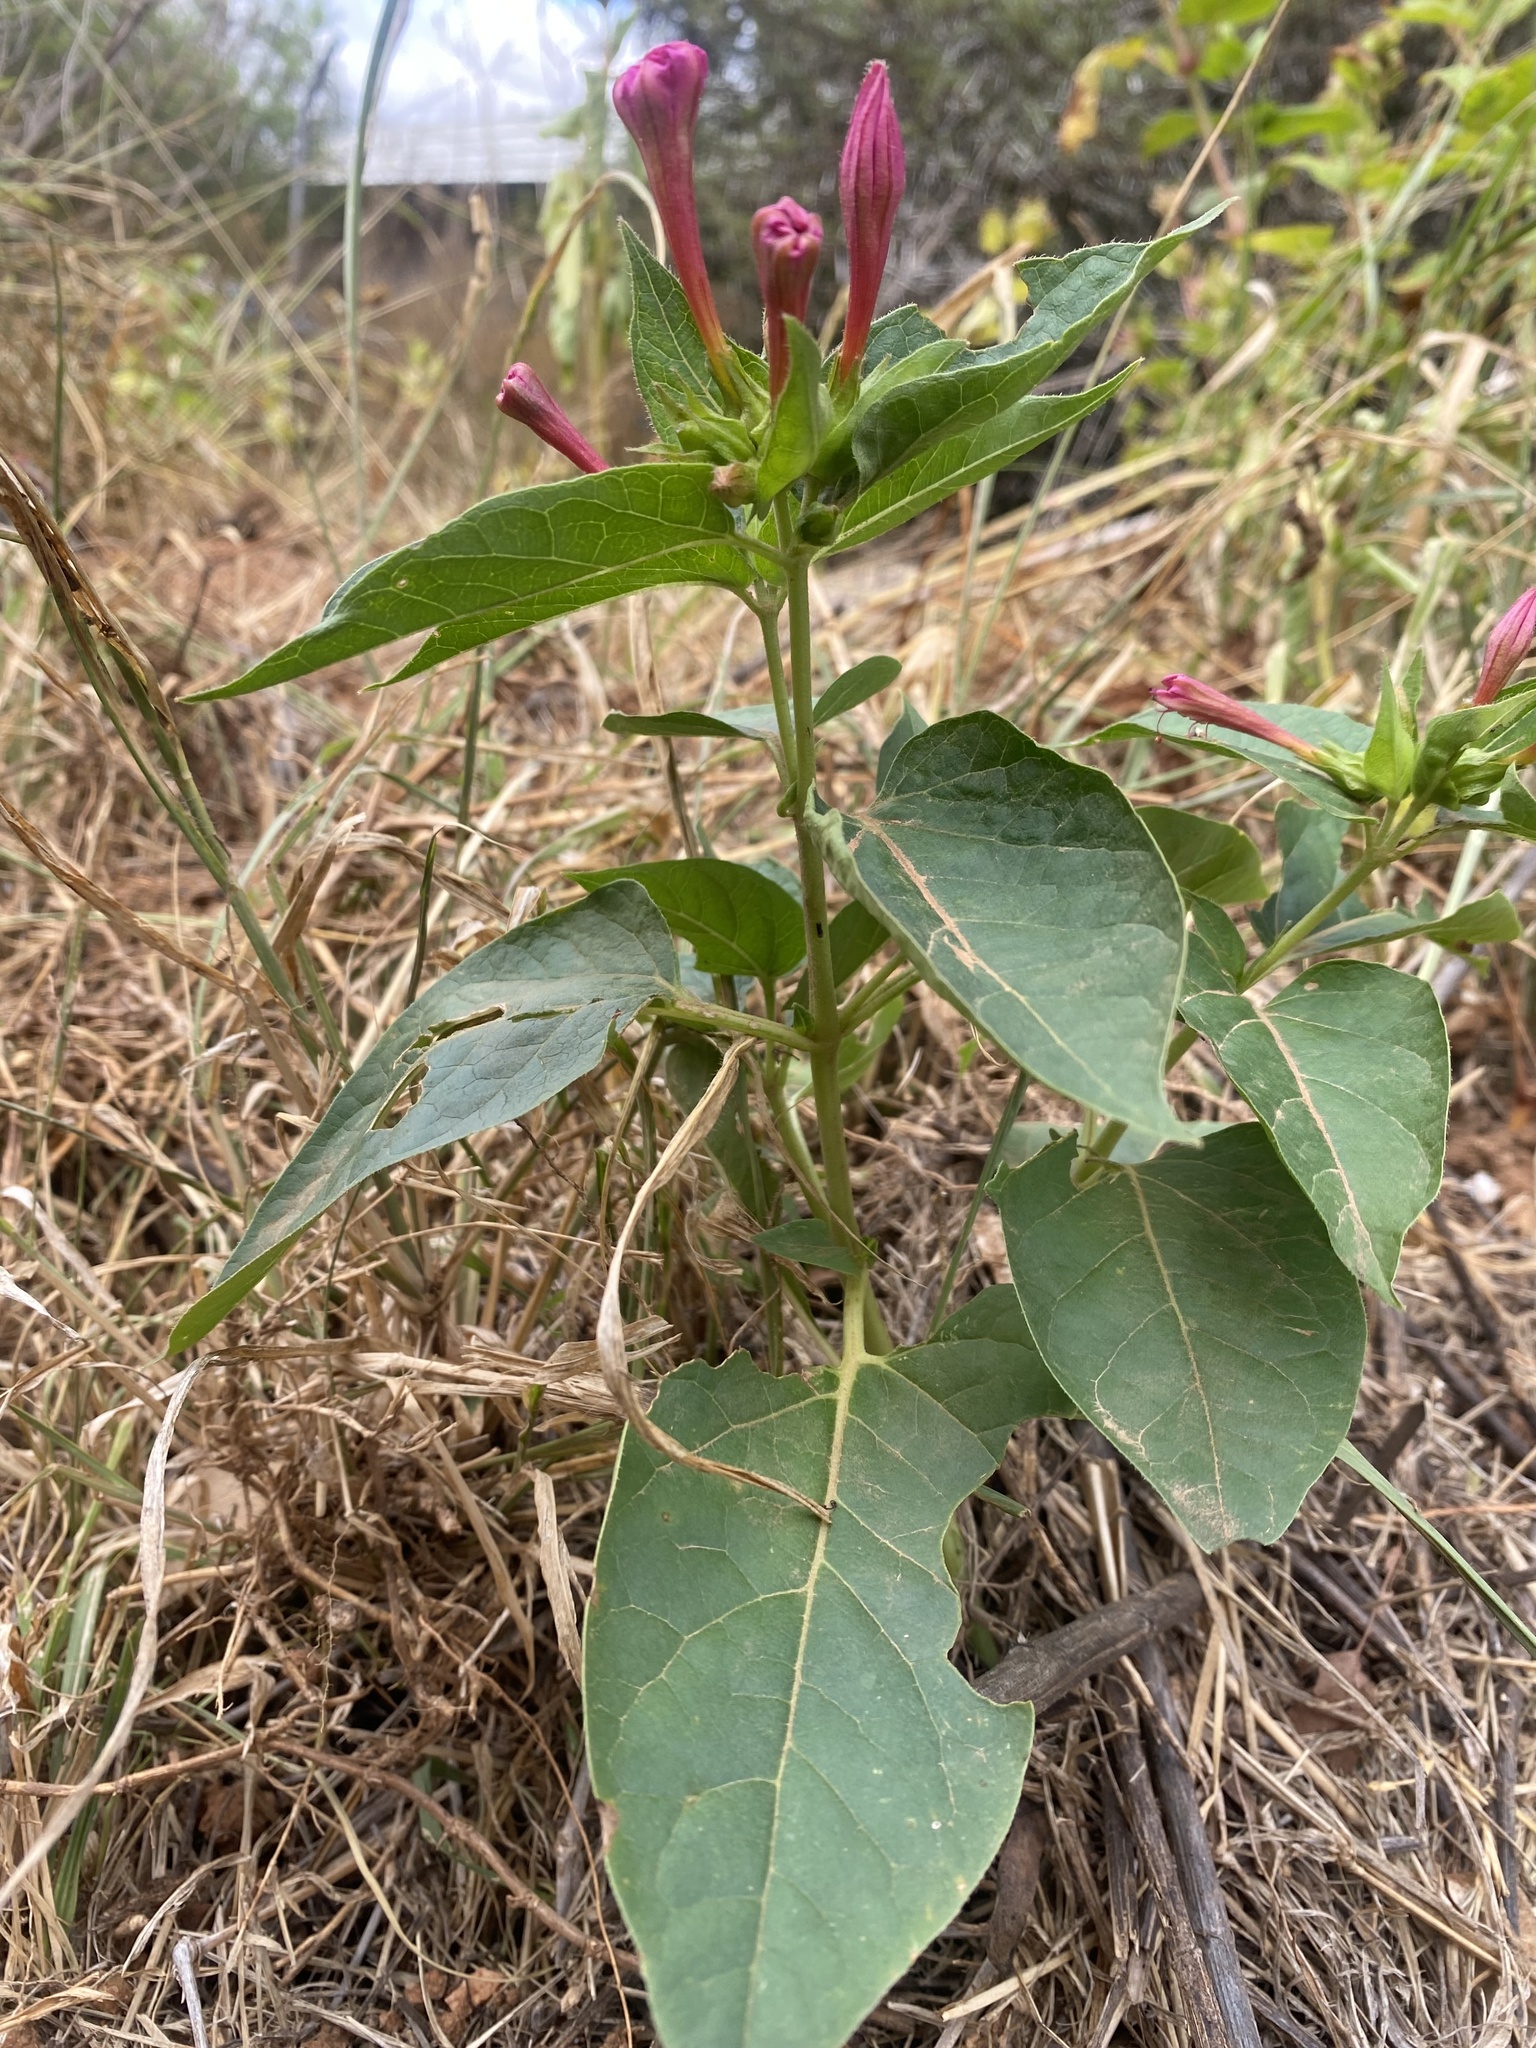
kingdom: Plantae
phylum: Tracheophyta
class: Magnoliopsida
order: Caryophyllales
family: Nyctaginaceae
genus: Mirabilis
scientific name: Mirabilis jalapa
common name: Marvel-of-peru
